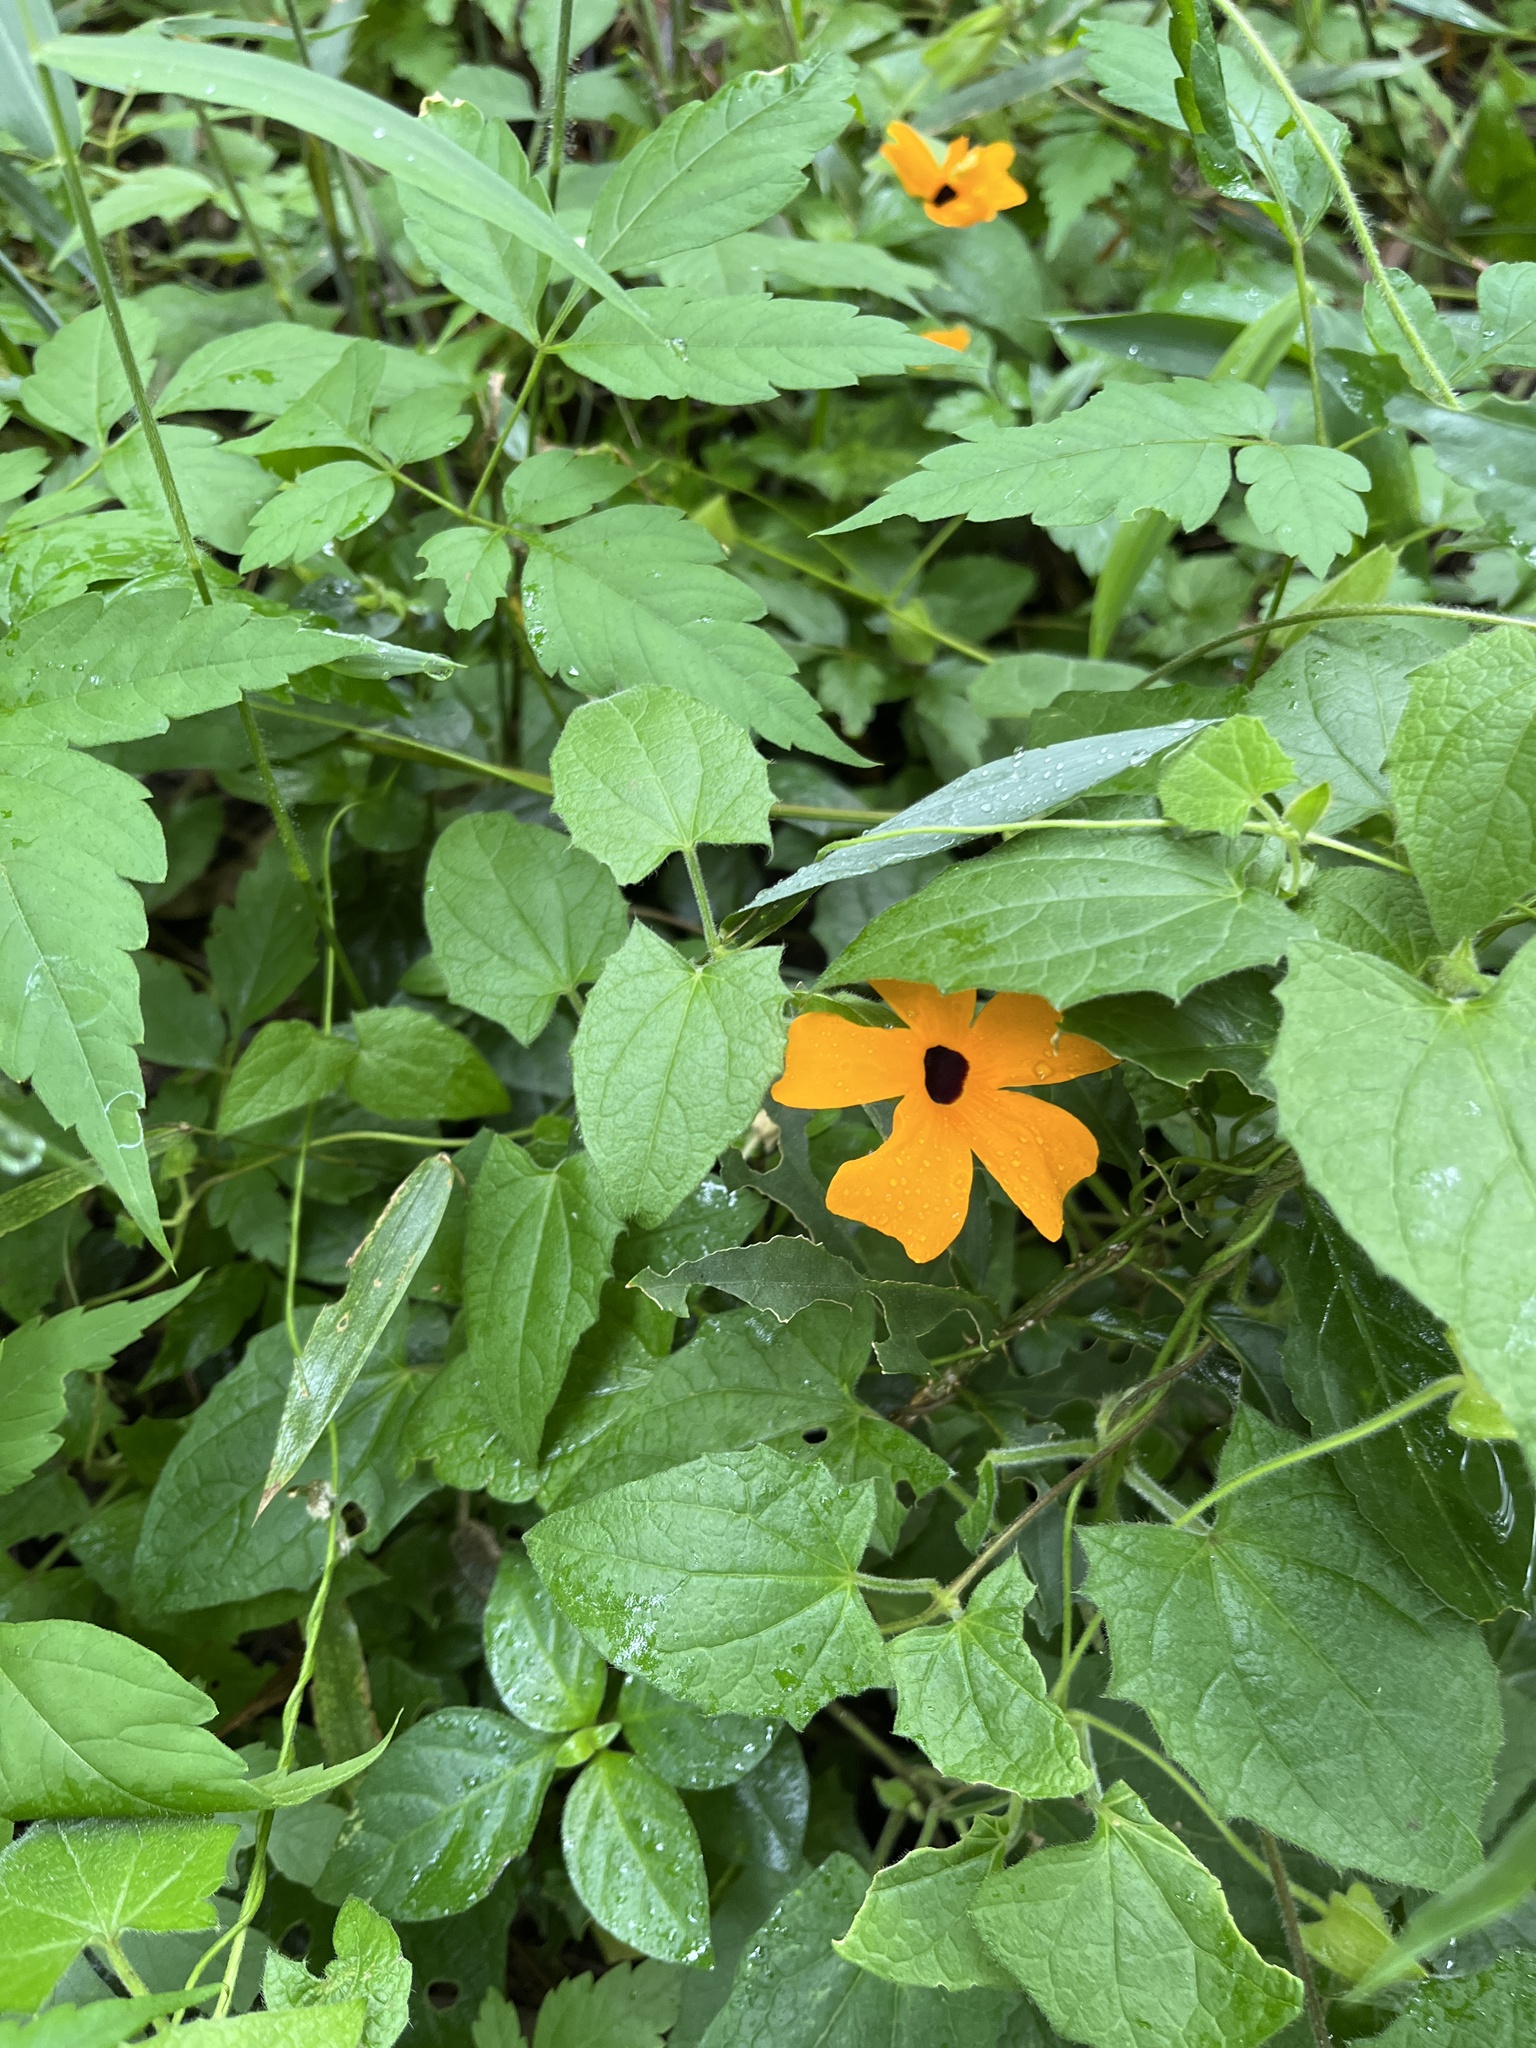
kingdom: Plantae
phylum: Tracheophyta
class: Magnoliopsida
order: Lamiales
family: Acanthaceae
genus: Thunbergia
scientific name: Thunbergia alata
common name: Blackeyed susan vine
